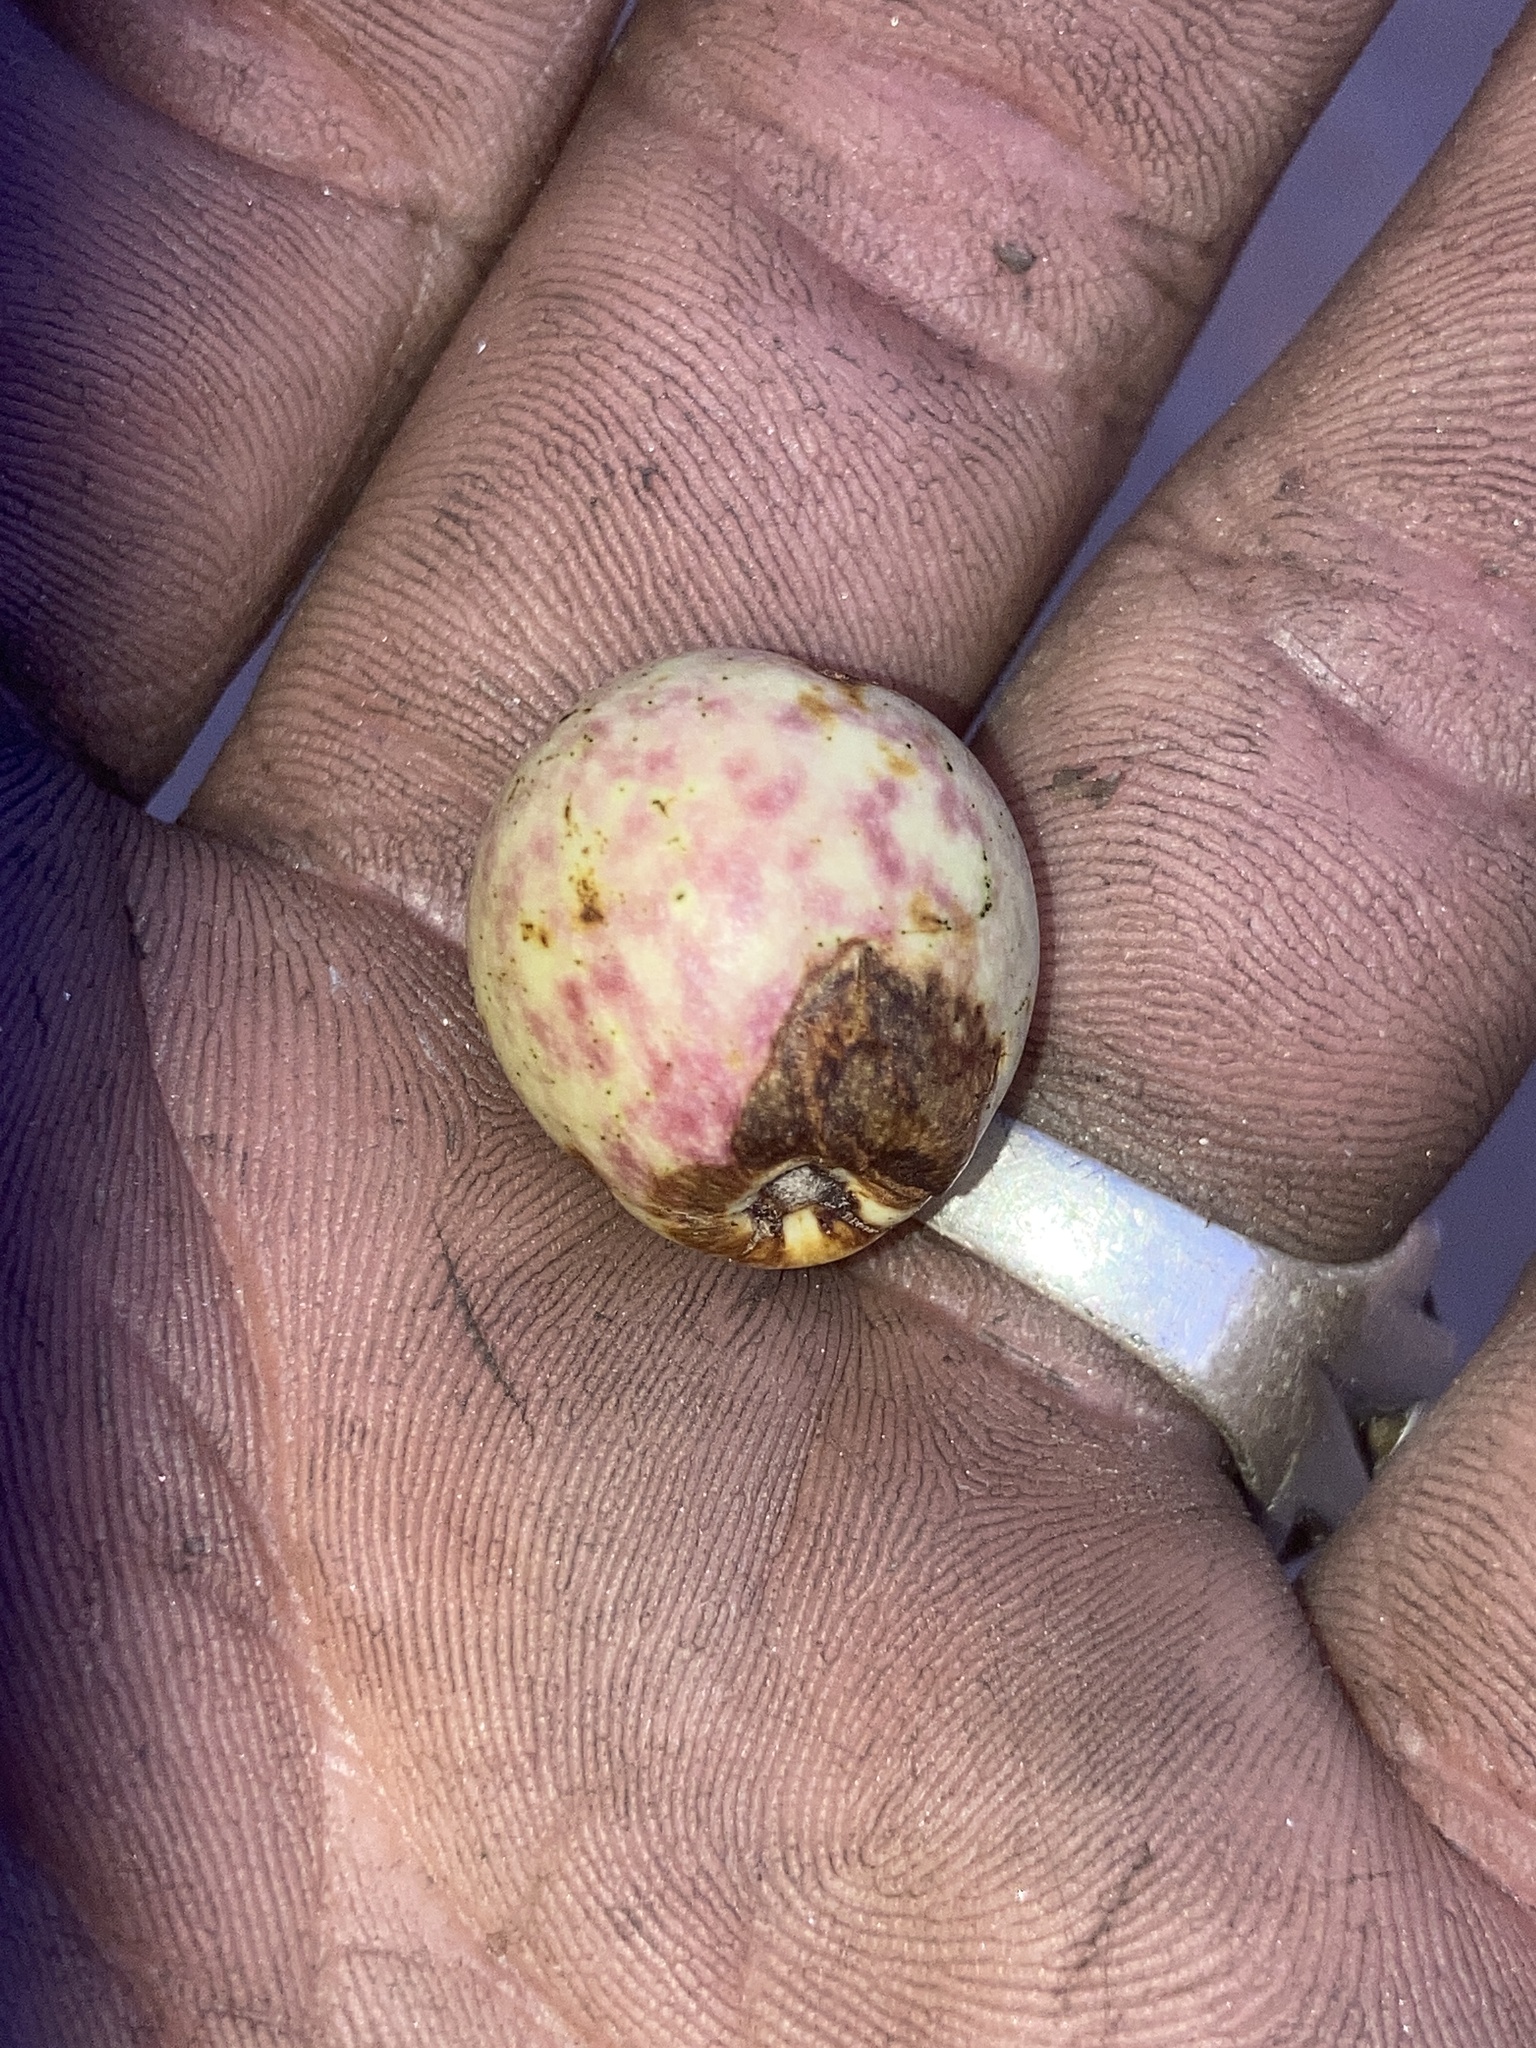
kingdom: Animalia
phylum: Arthropoda
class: Insecta
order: Hymenoptera
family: Cynipidae
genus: Amphibolips
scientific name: Amphibolips
